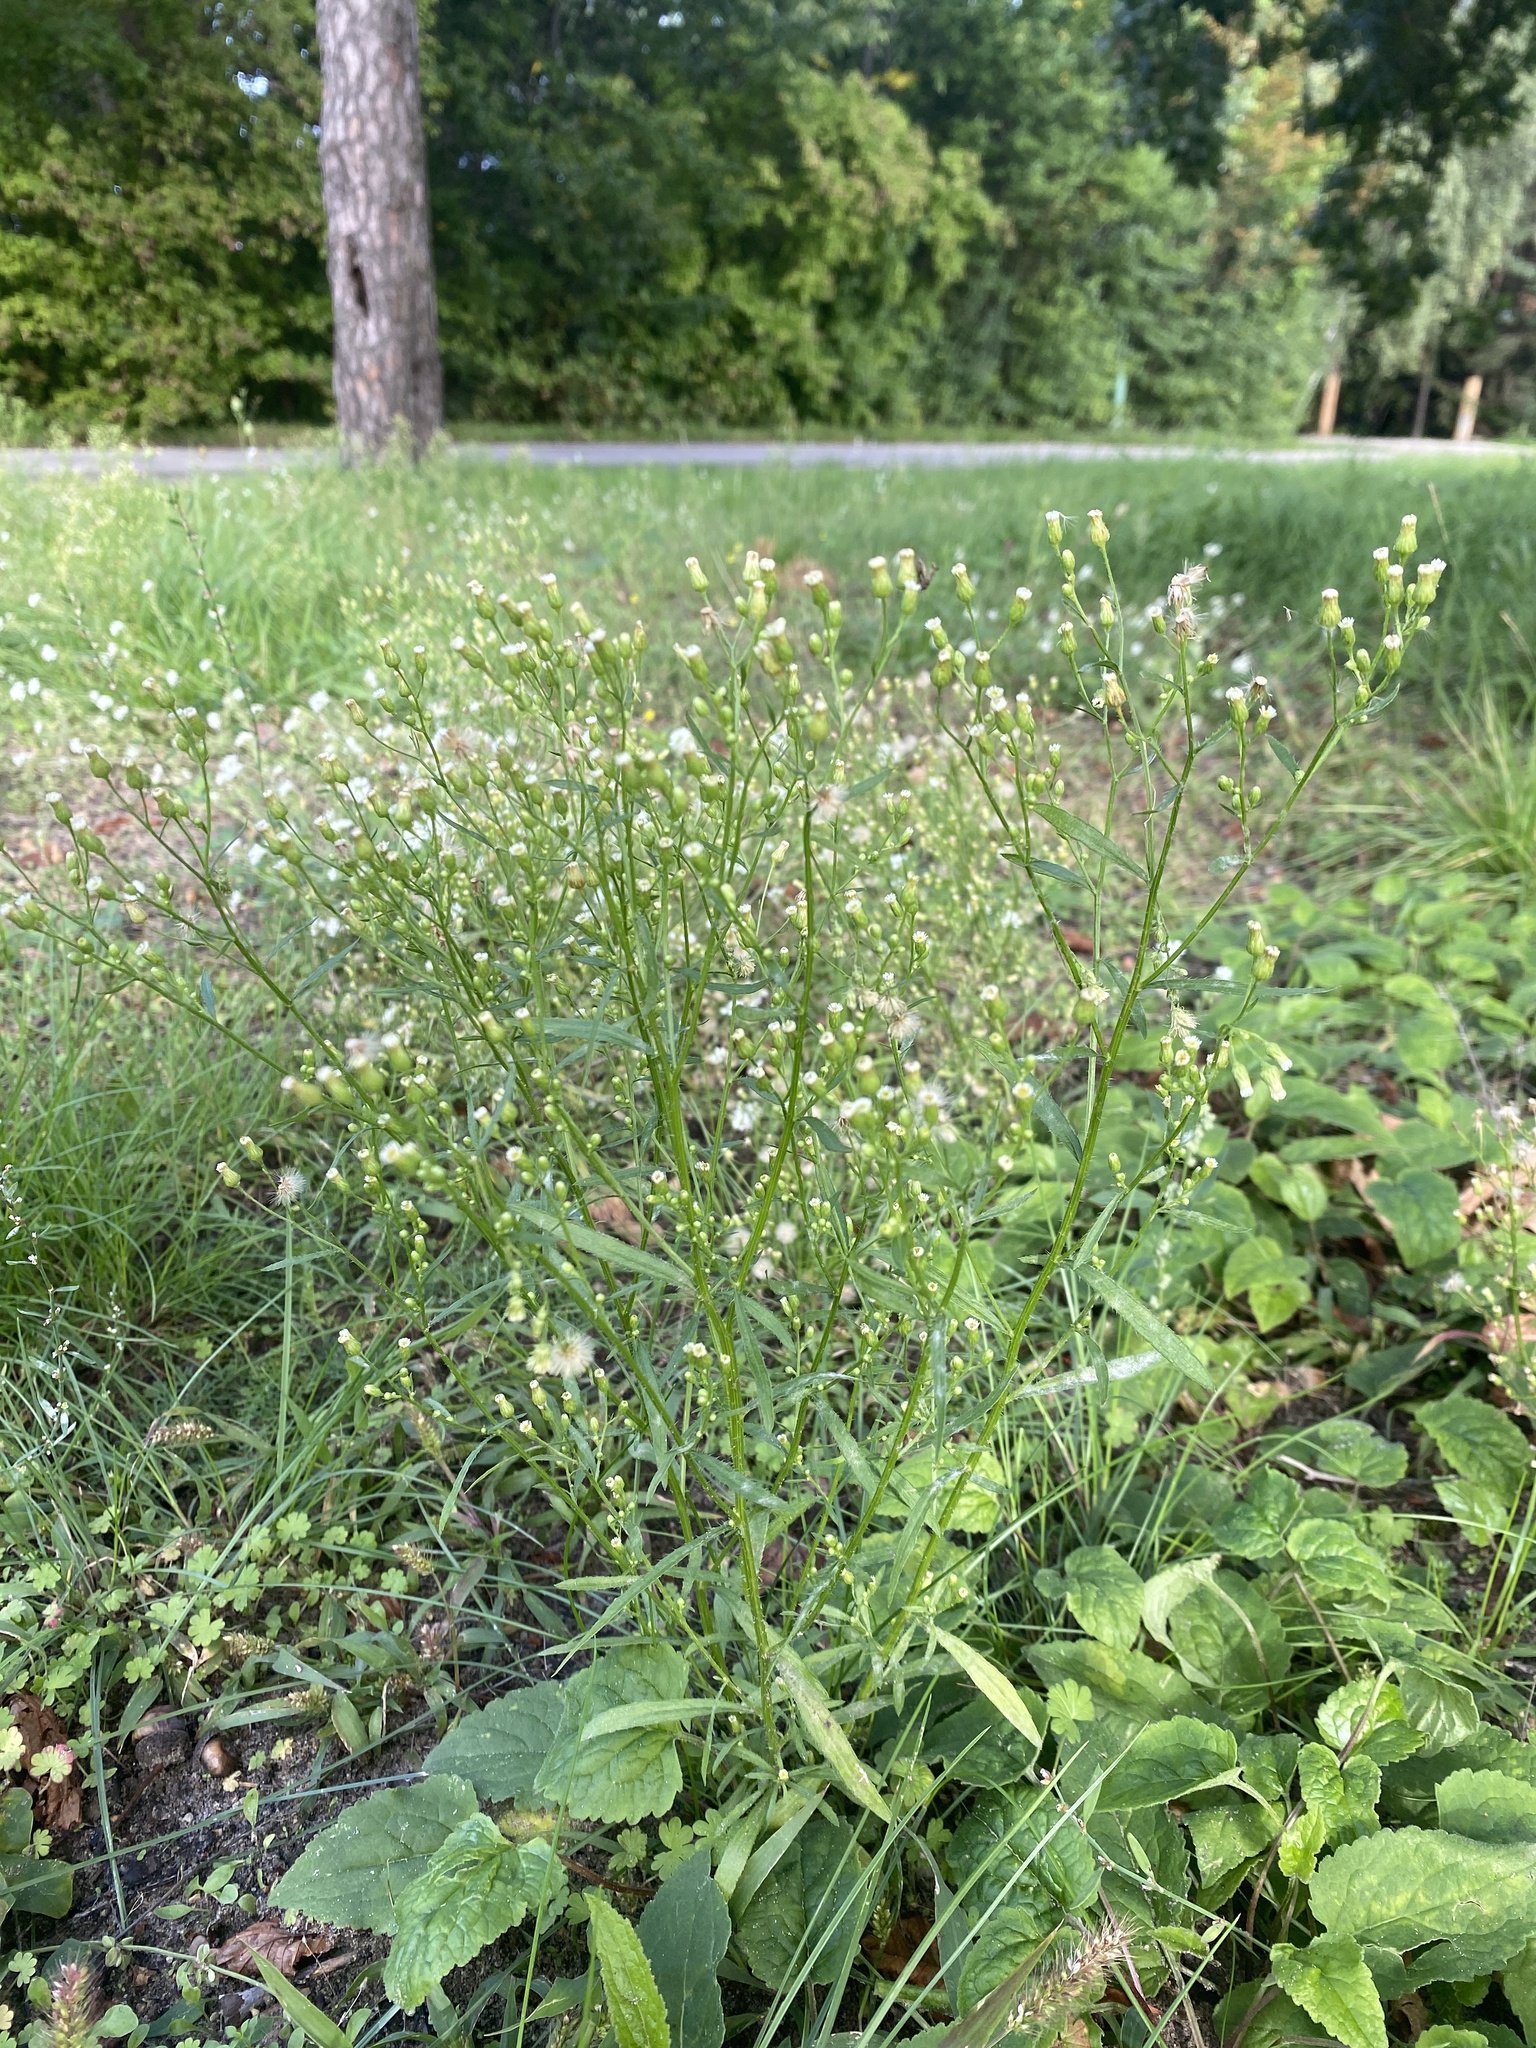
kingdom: Plantae
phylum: Tracheophyta
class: Magnoliopsida
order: Asterales
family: Asteraceae
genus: Erigeron
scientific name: Erigeron canadensis
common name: Canadian fleabane
